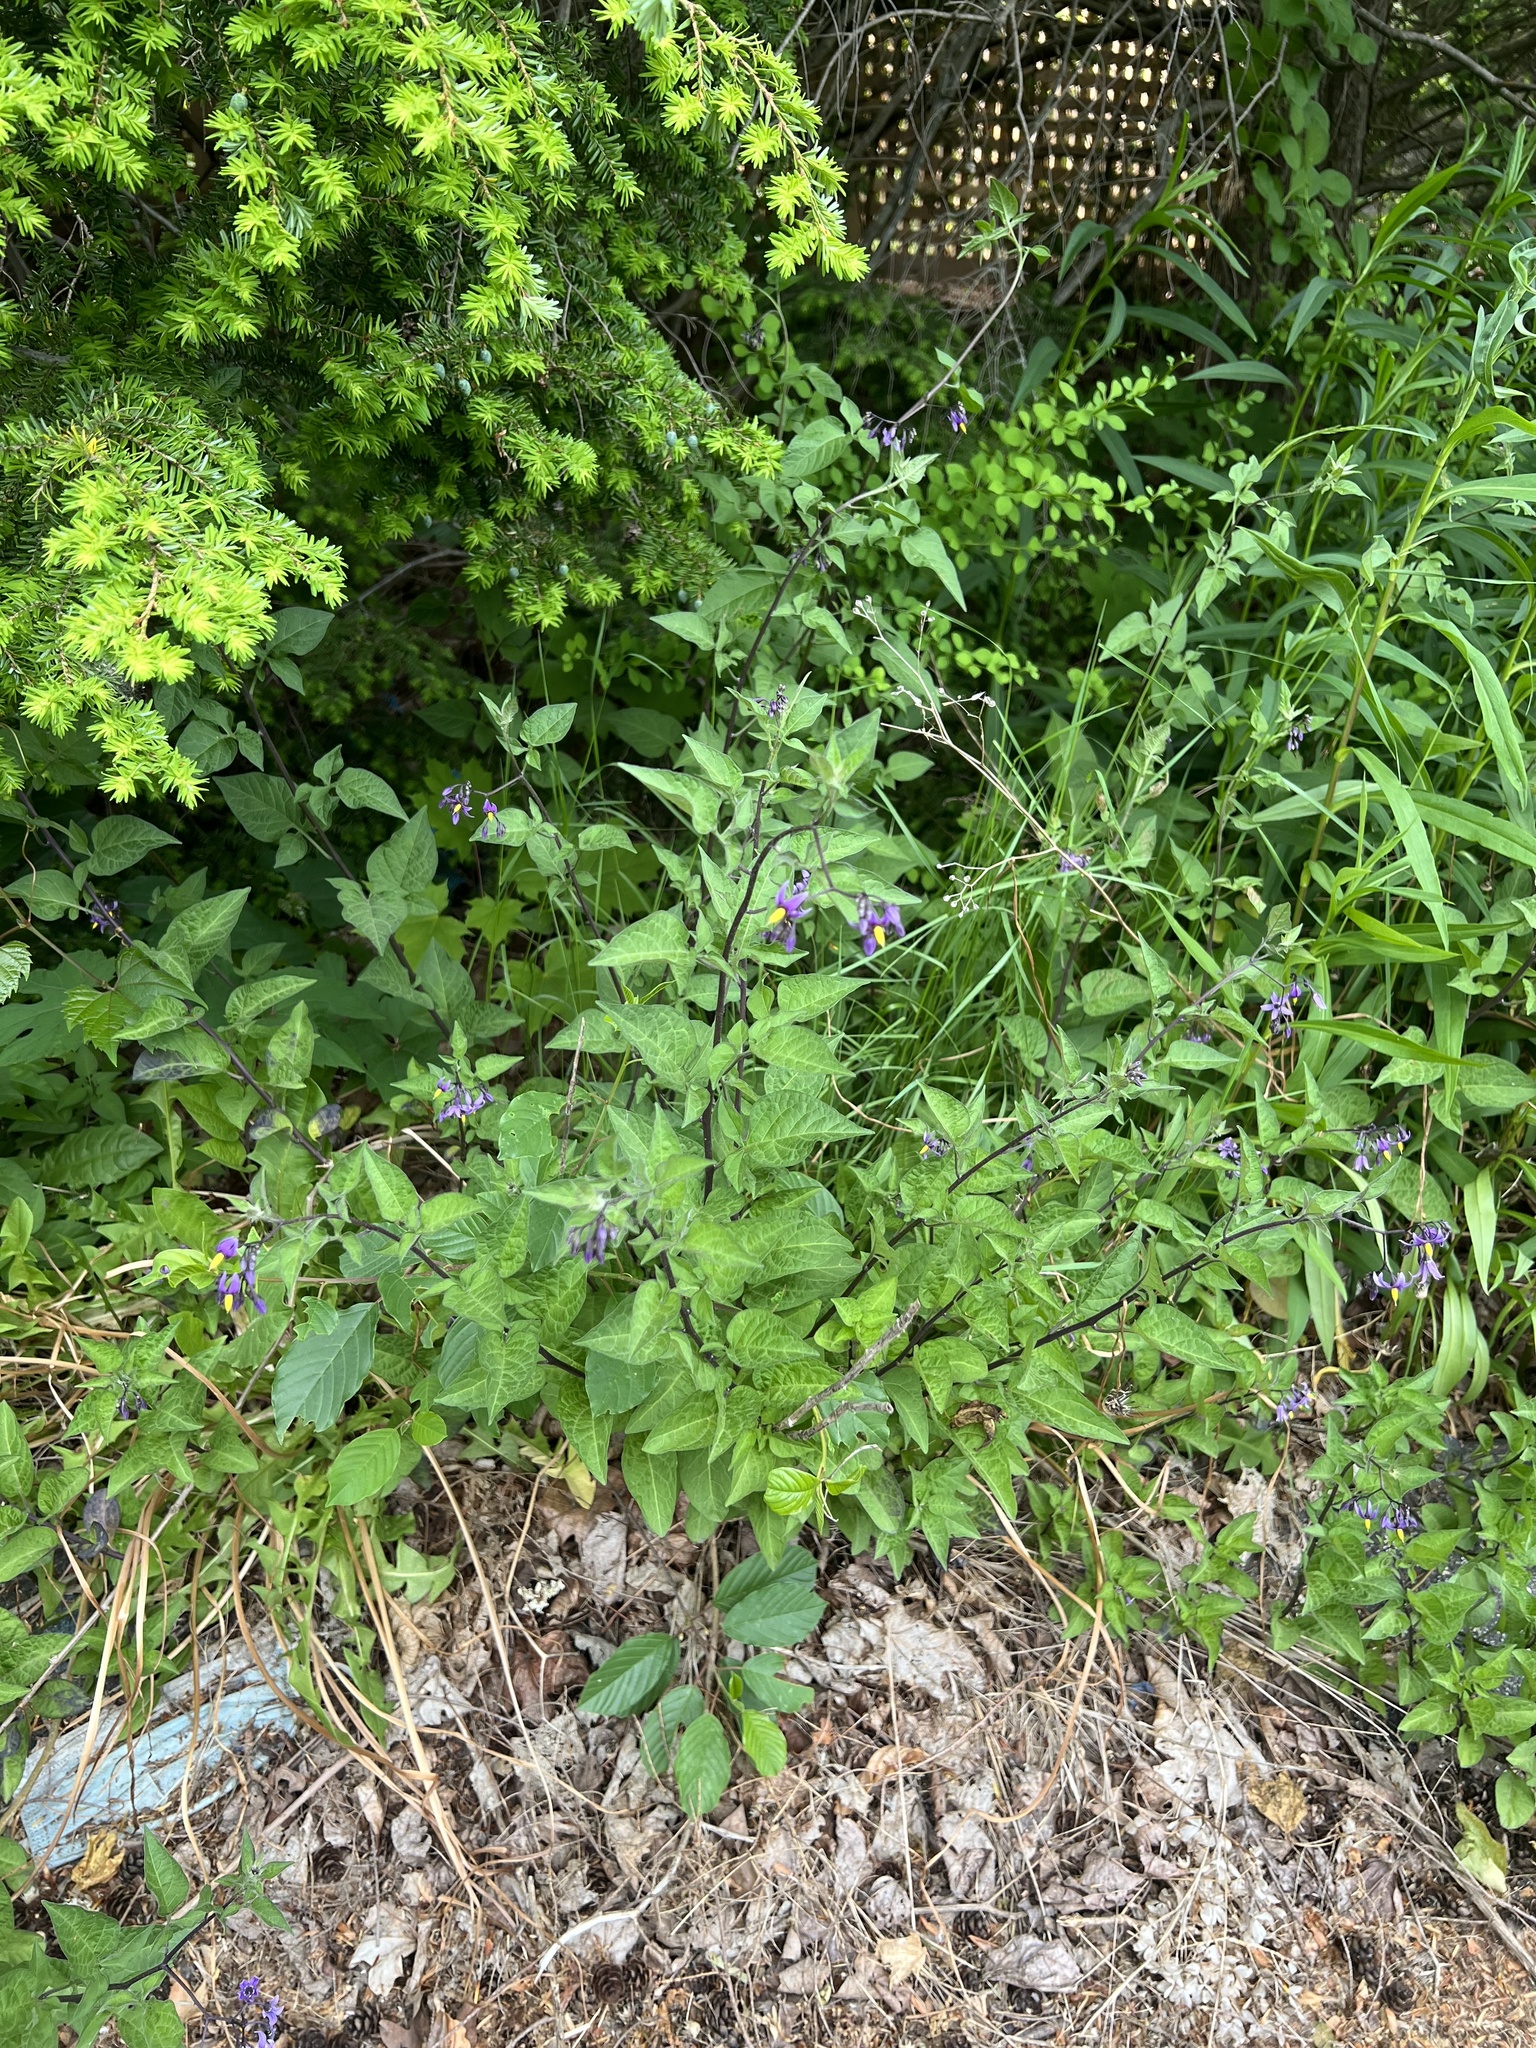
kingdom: Plantae
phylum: Tracheophyta
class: Magnoliopsida
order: Solanales
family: Solanaceae
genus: Solanum
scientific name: Solanum dulcamara
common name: Climbing nightshade
